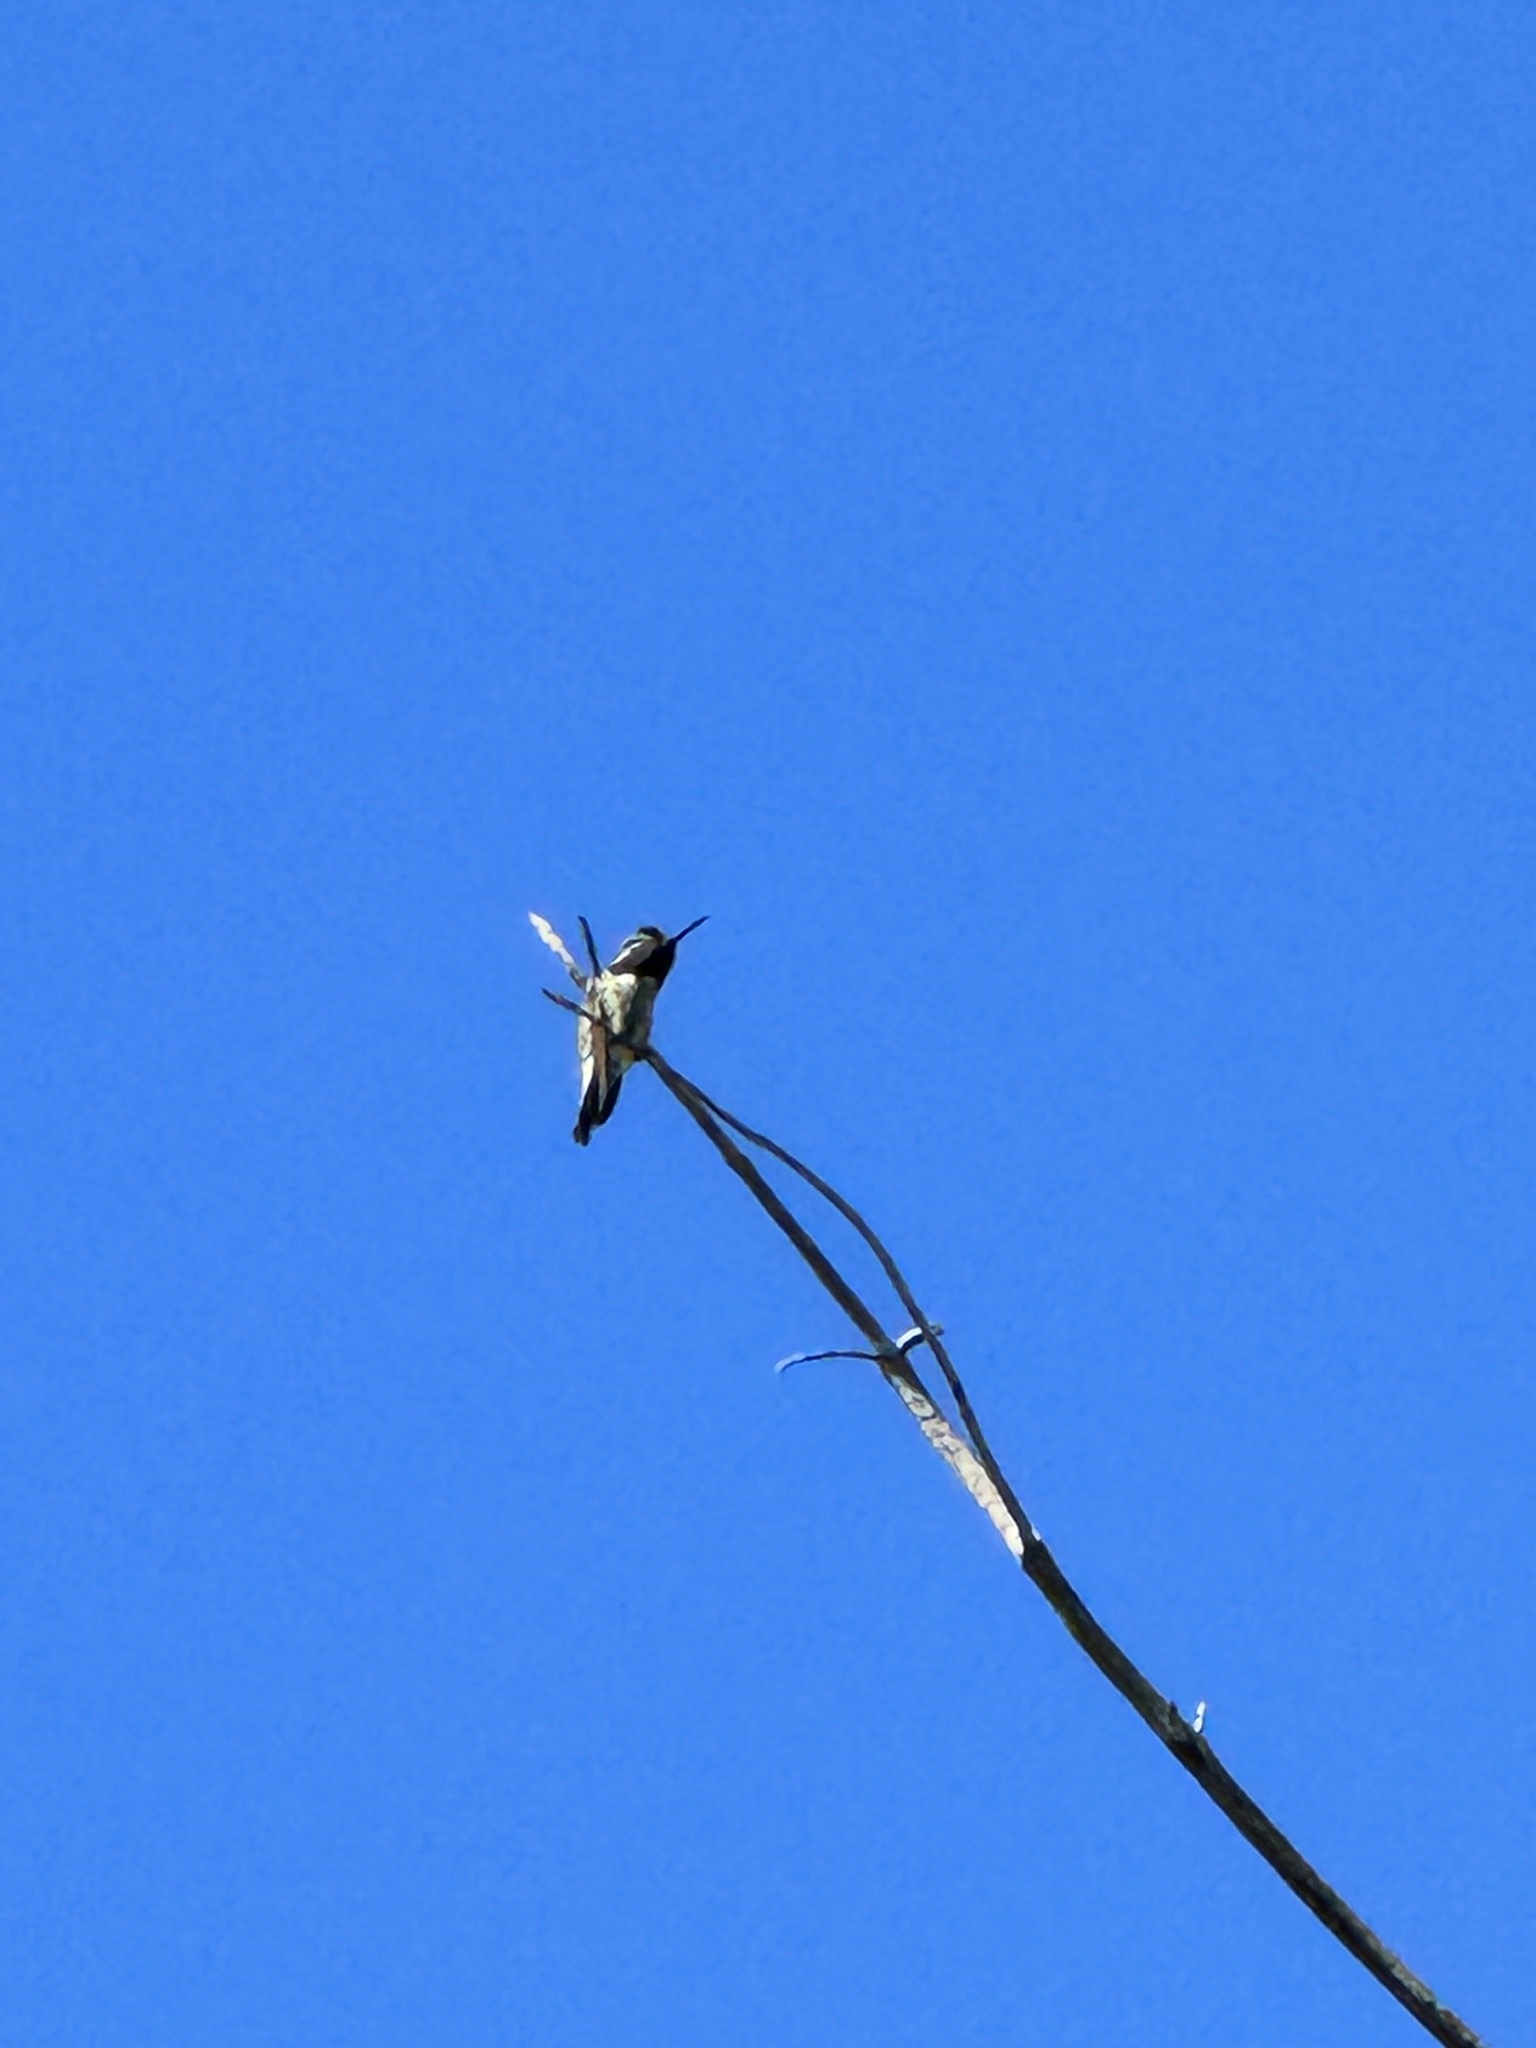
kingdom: Animalia
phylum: Chordata
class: Aves
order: Apodiformes
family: Trochilidae
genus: Calypte
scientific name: Calypte anna
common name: Anna's hummingbird
